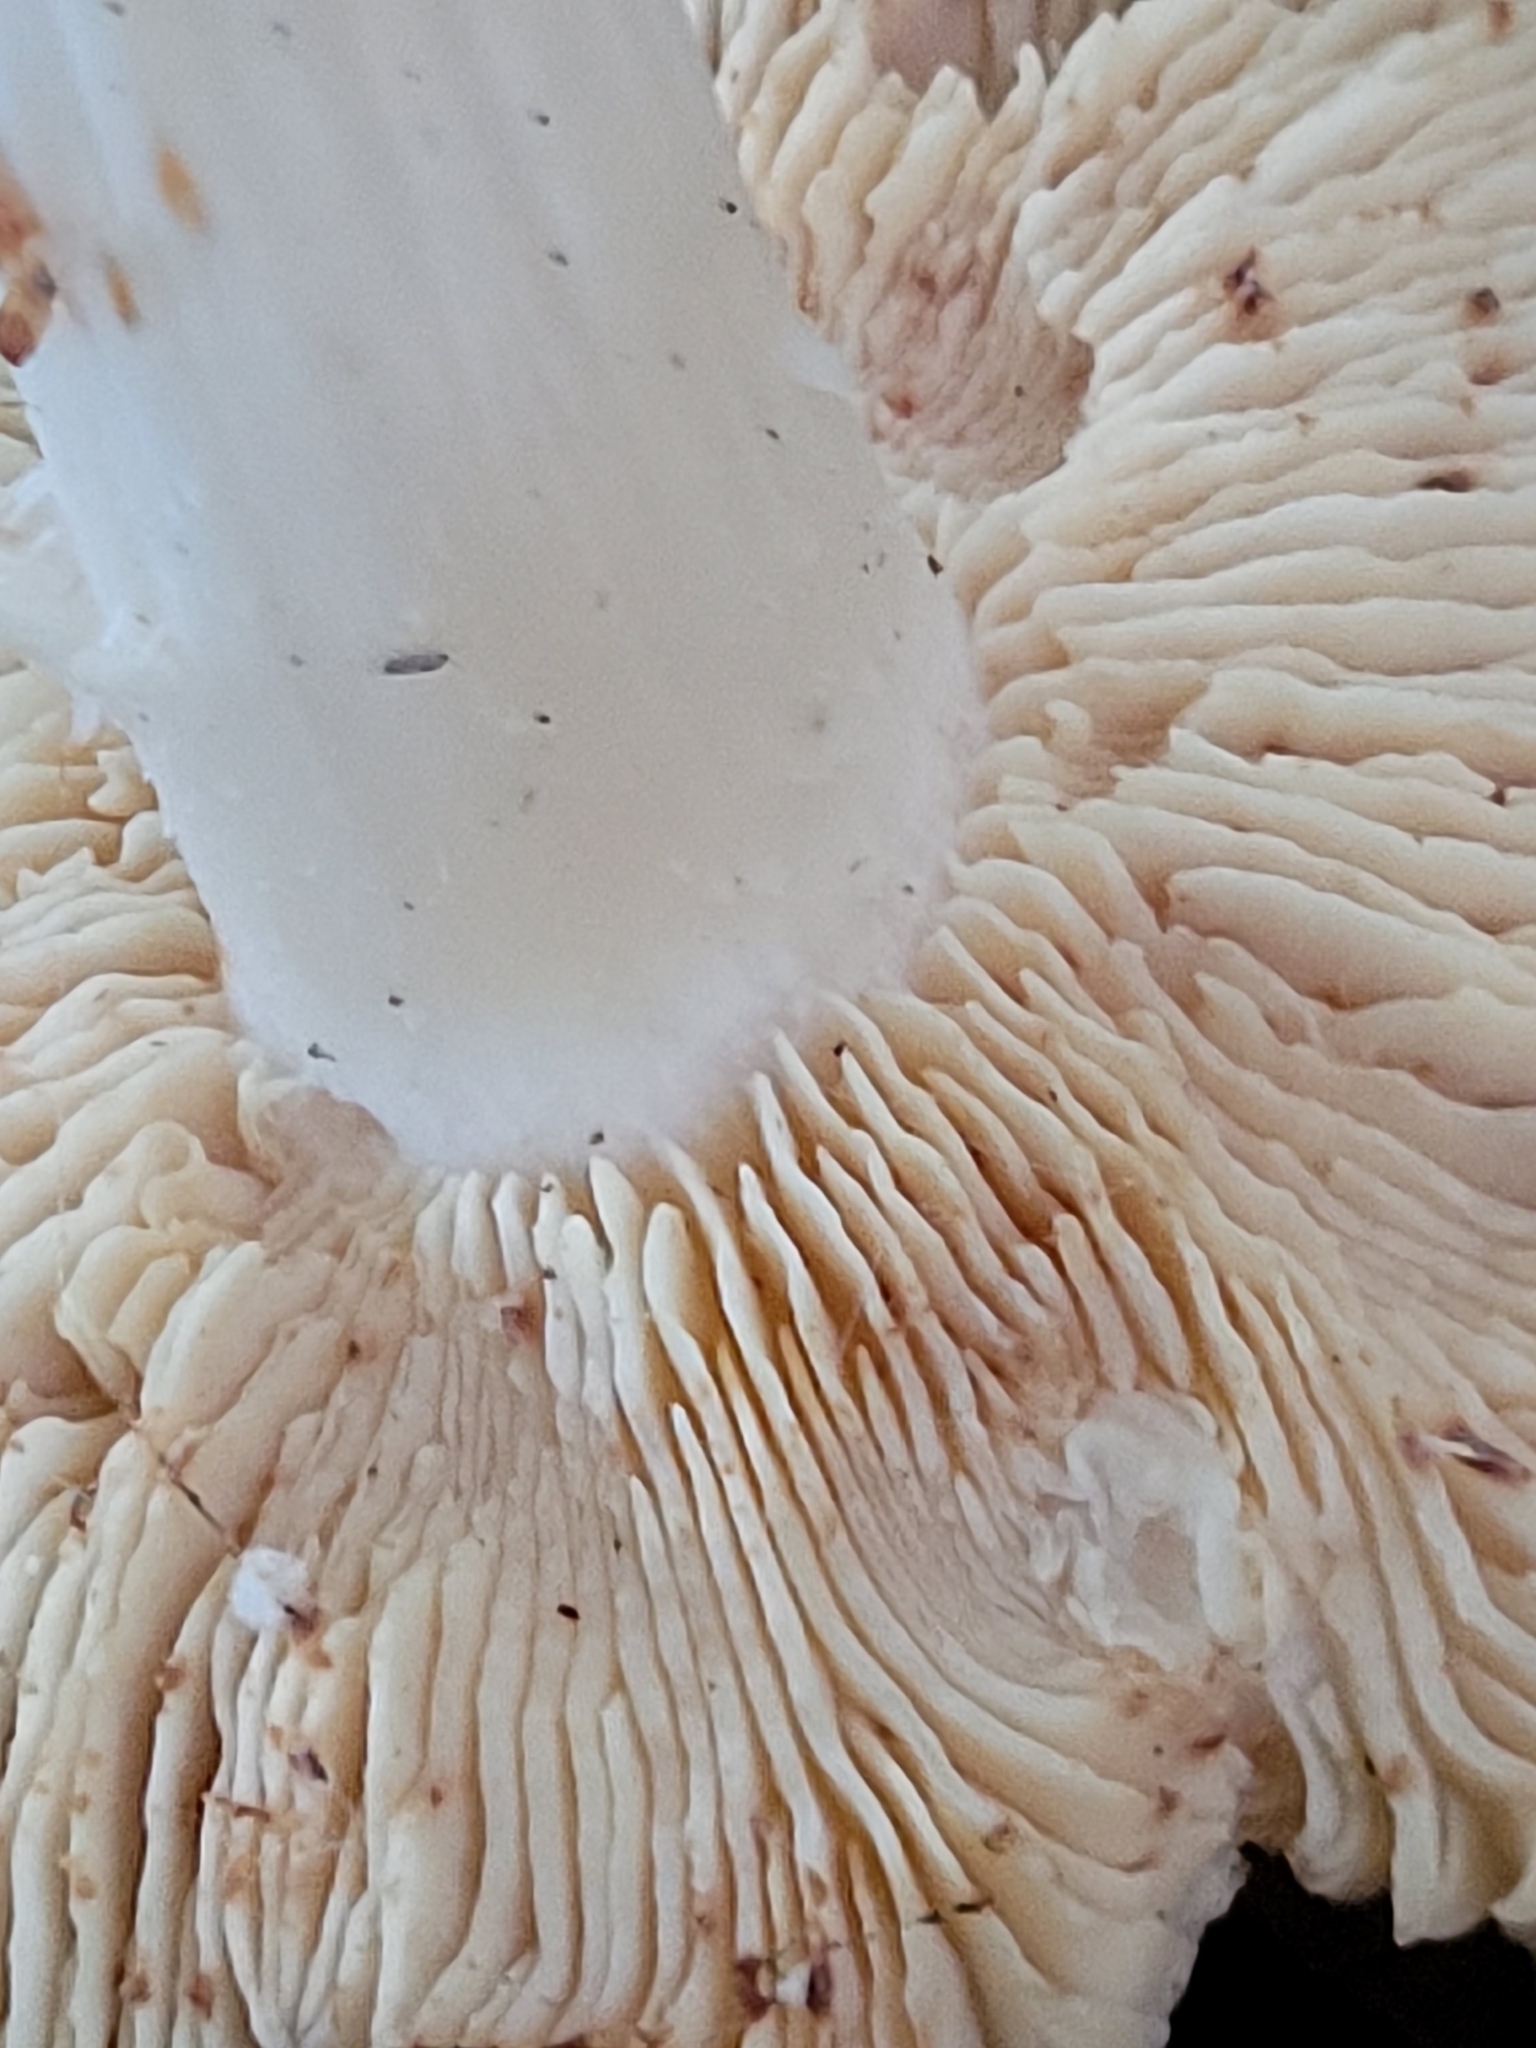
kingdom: Fungi
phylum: Basidiomycota
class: Agaricomycetes
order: Agaricales
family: Omphalotaceae
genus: Rhodocollybia
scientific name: Rhodocollybia maculata
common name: Spotted tough-shank
